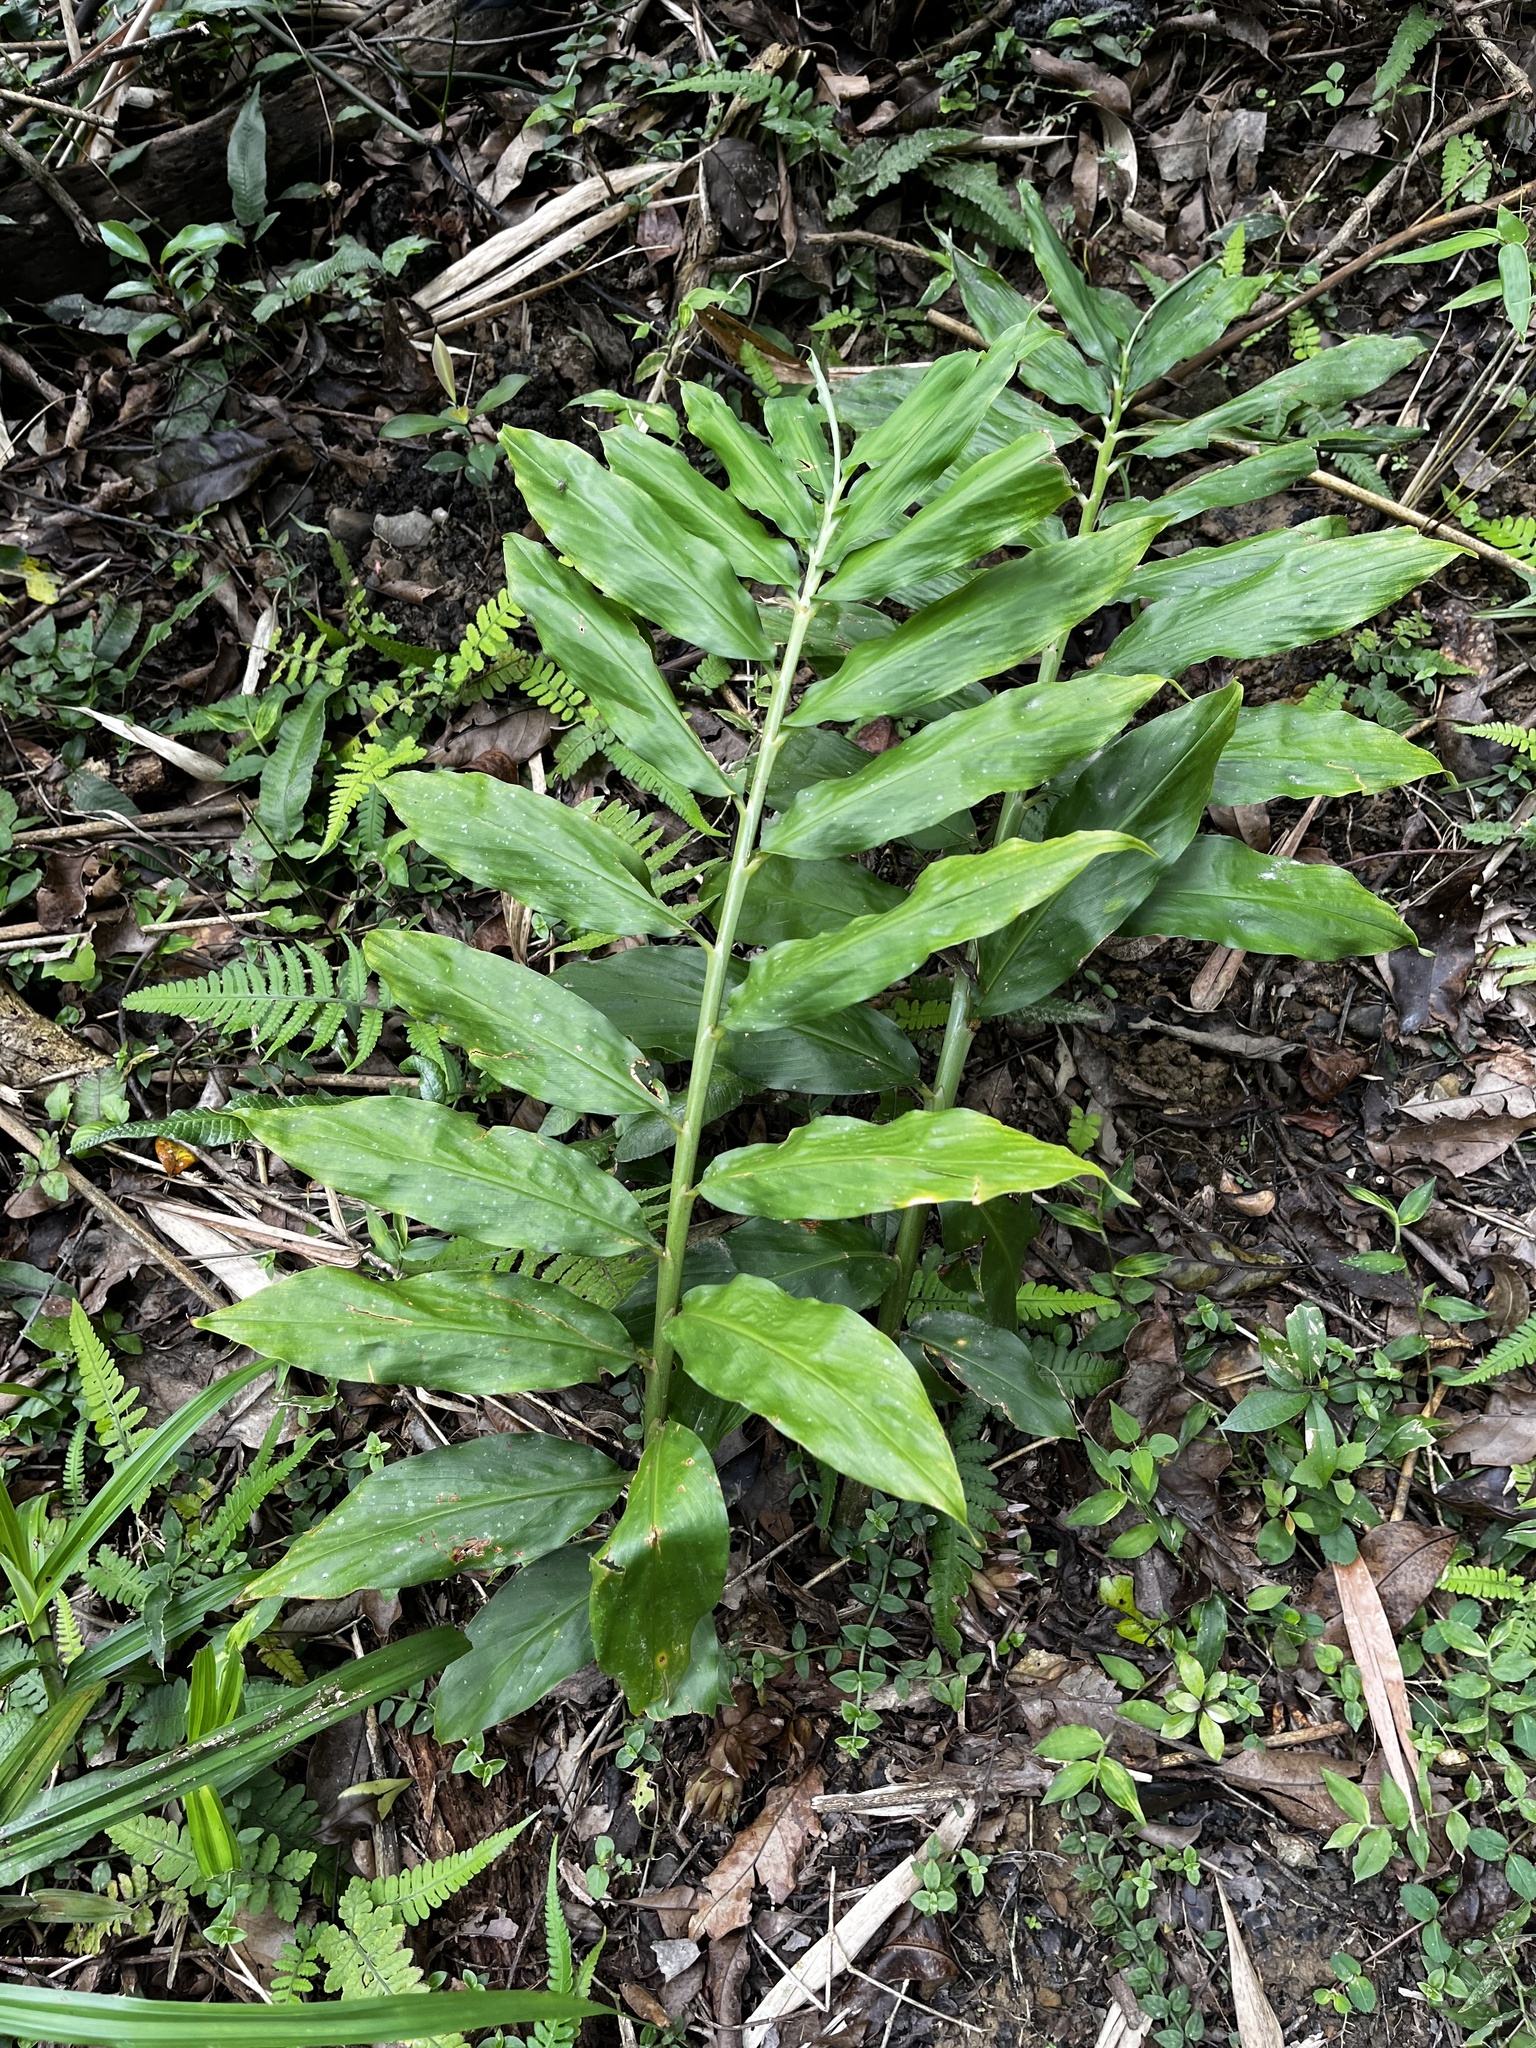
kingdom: Plantae
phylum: Tracheophyta
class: Liliopsida
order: Zingiberales
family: Zingiberaceae
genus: Zingiber
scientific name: Zingiber kawagoii
